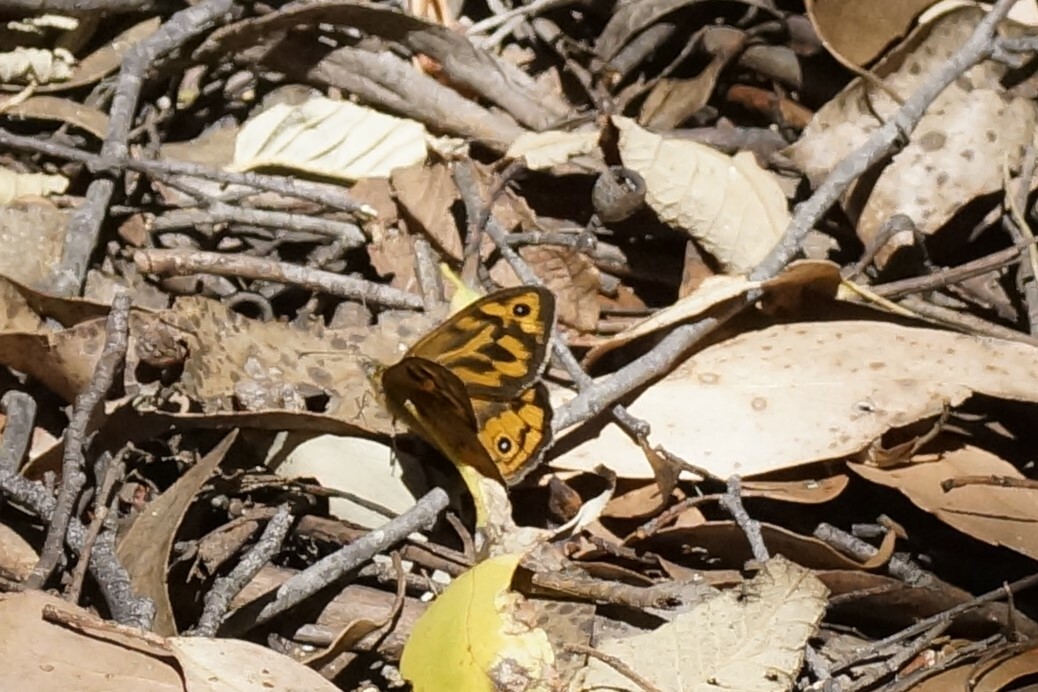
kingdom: Animalia
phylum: Arthropoda
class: Insecta
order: Lepidoptera
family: Nymphalidae
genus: Heteronympha
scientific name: Heteronympha merope
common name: Common brown
